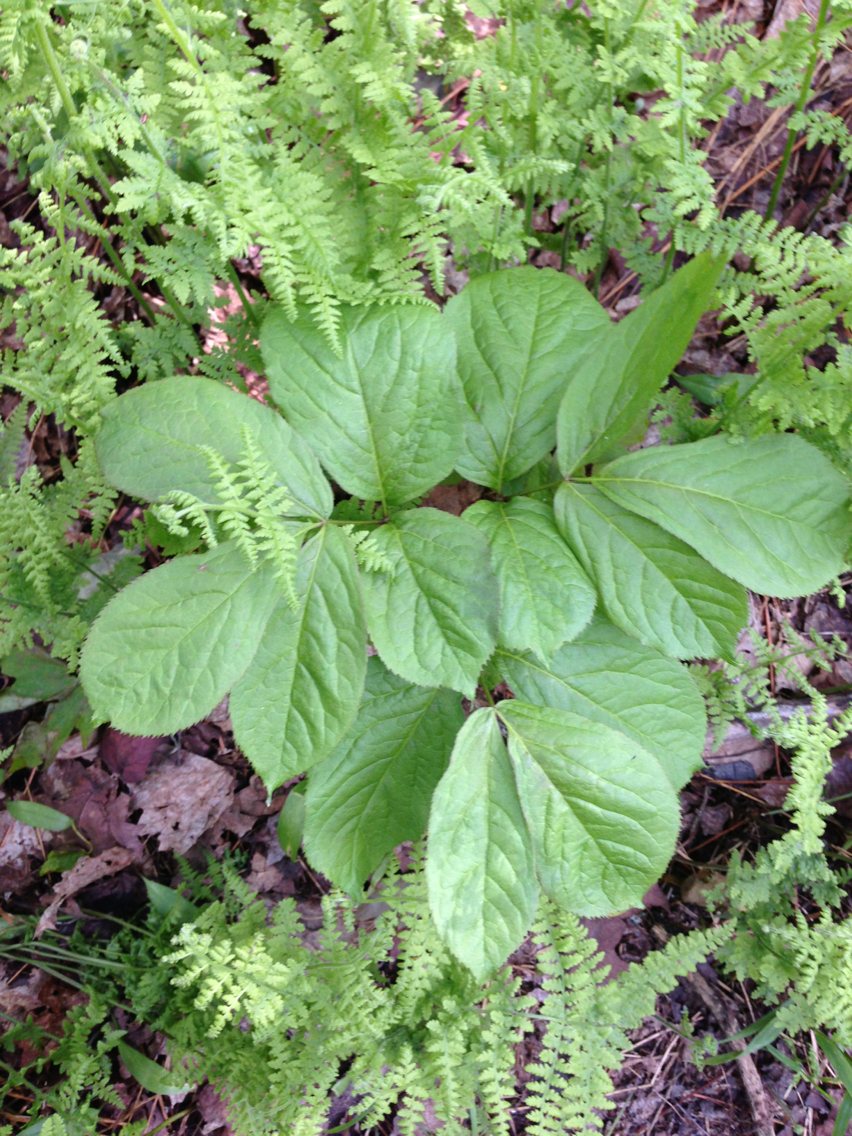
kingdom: Plantae
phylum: Tracheophyta
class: Magnoliopsida
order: Apiales
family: Araliaceae
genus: Aralia
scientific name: Aralia nudicaulis
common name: Wild sarsaparilla
